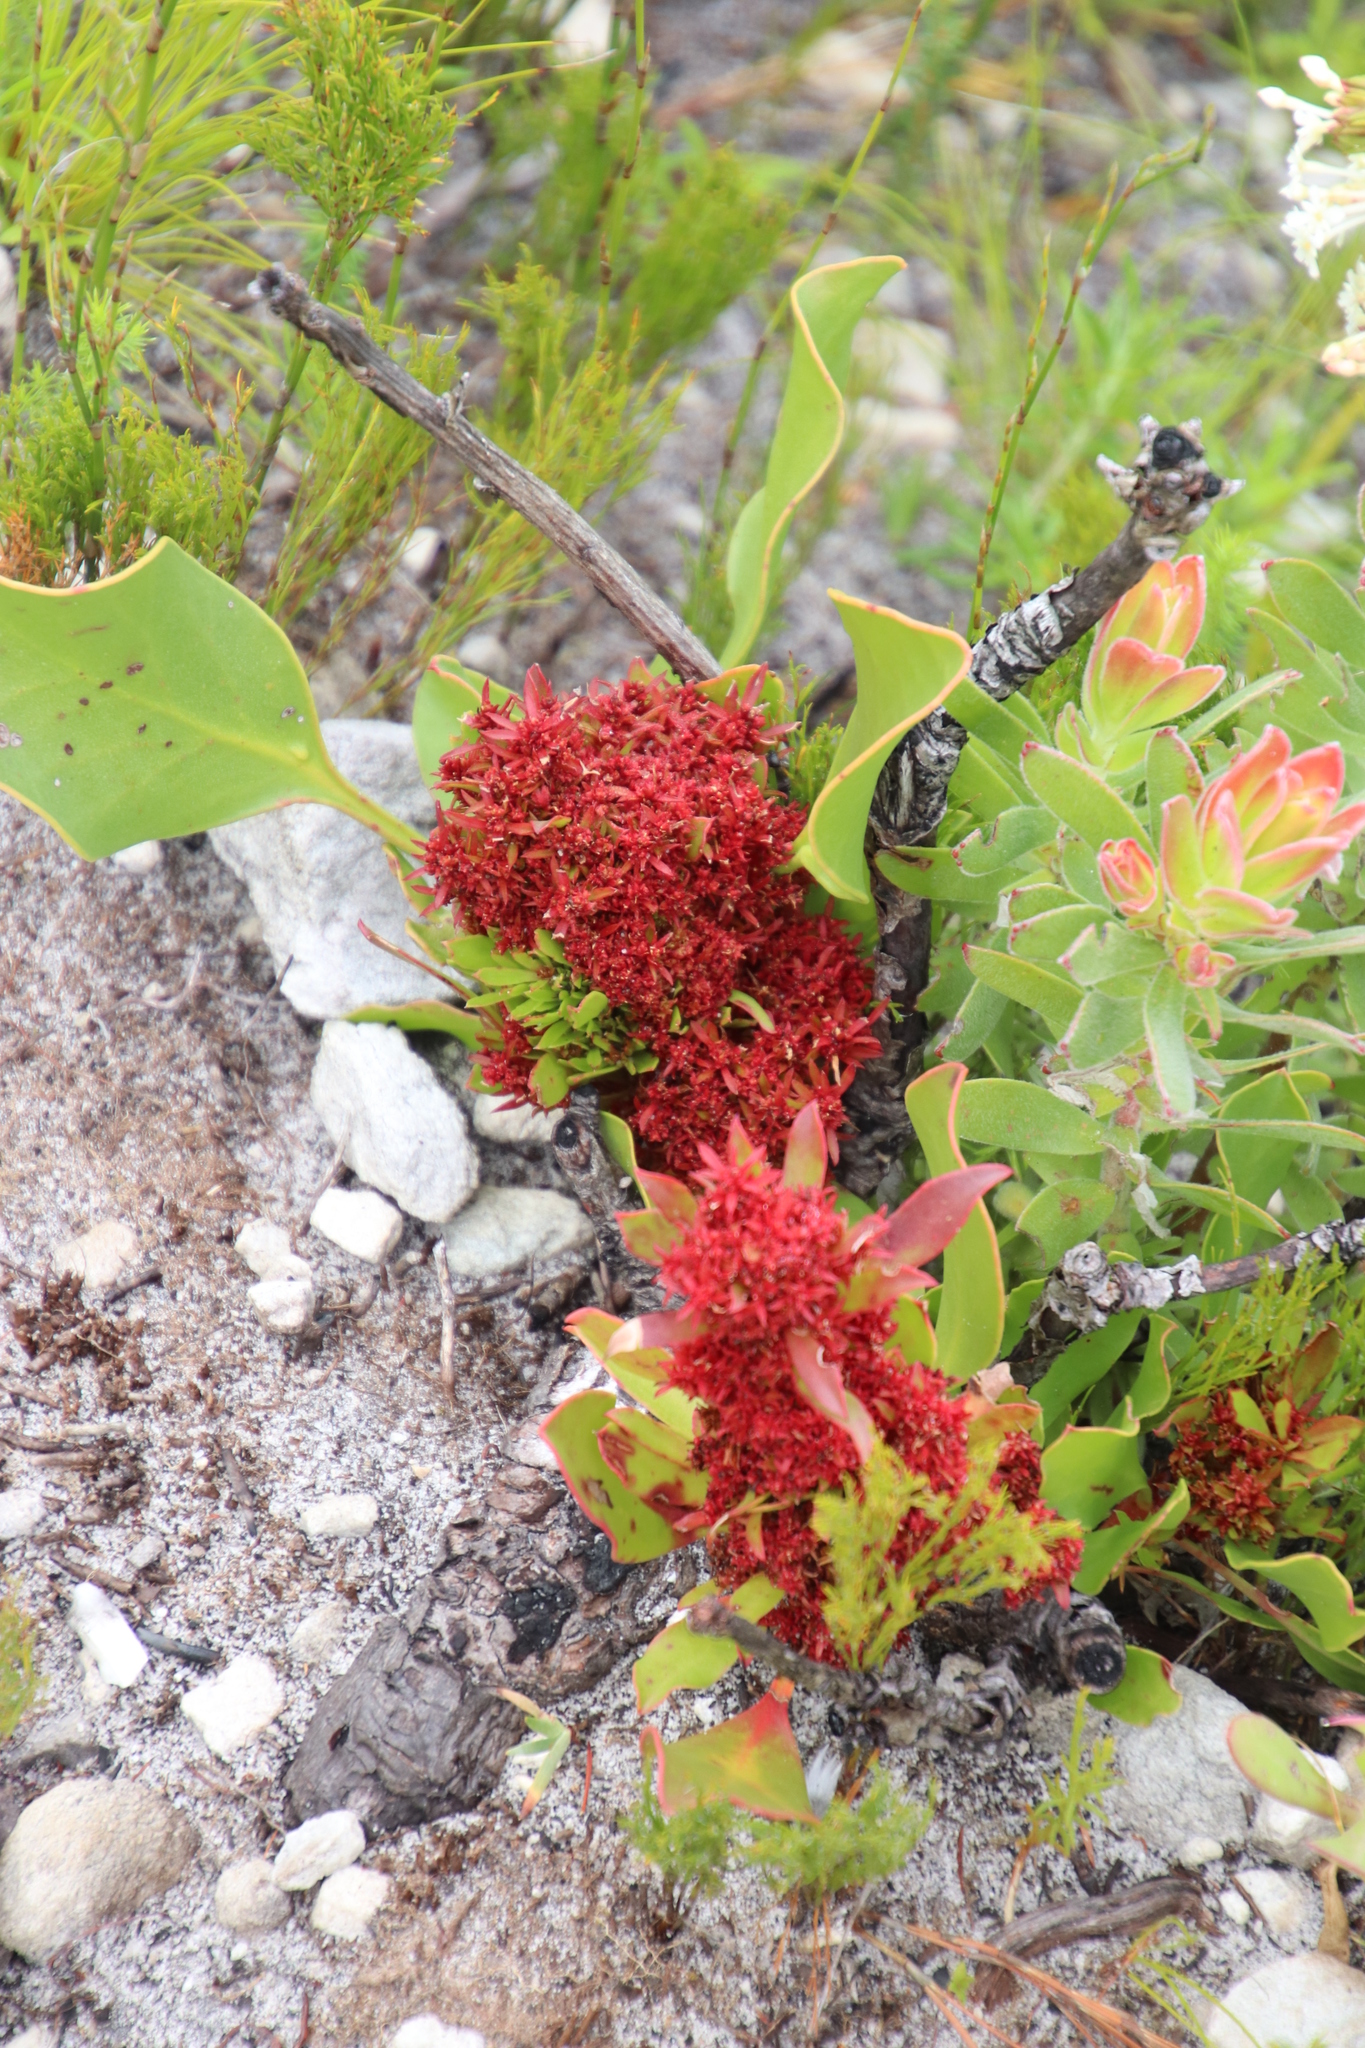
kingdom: Plantae
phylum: Tracheophyta
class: Magnoliopsida
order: Proteales
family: Proteaceae
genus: Protea
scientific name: Protea cynaroides
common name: King protea
